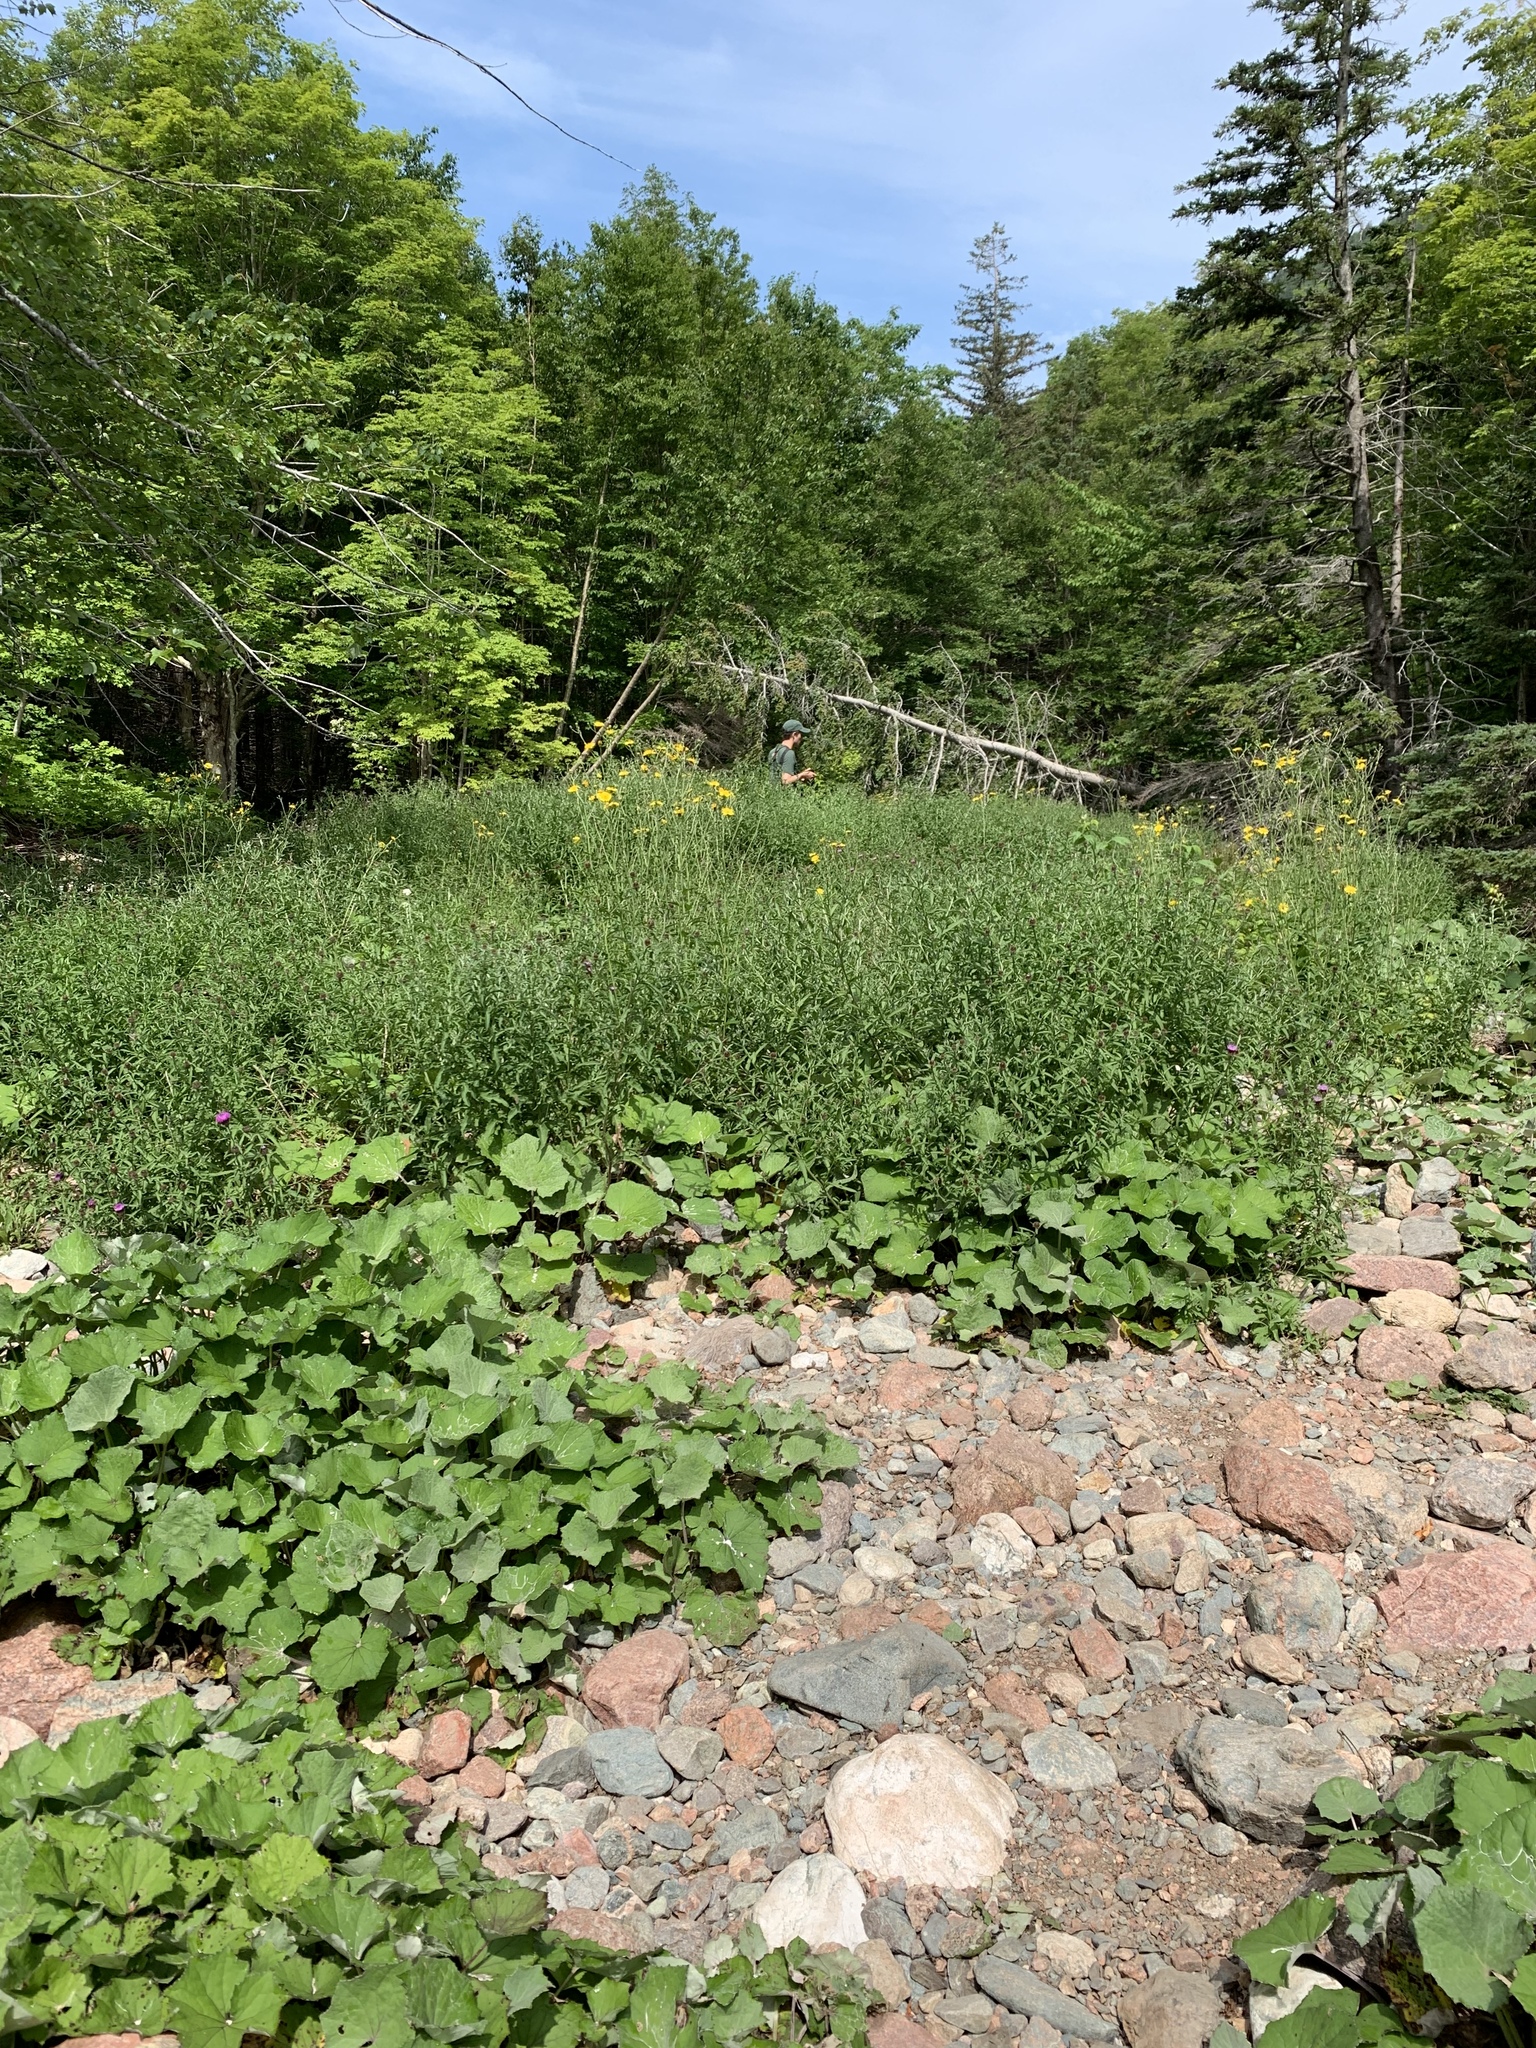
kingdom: Plantae
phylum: Tracheophyta
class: Magnoliopsida
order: Asterales
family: Asteraceae
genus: Tussilago
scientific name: Tussilago farfara
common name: Coltsfoot
